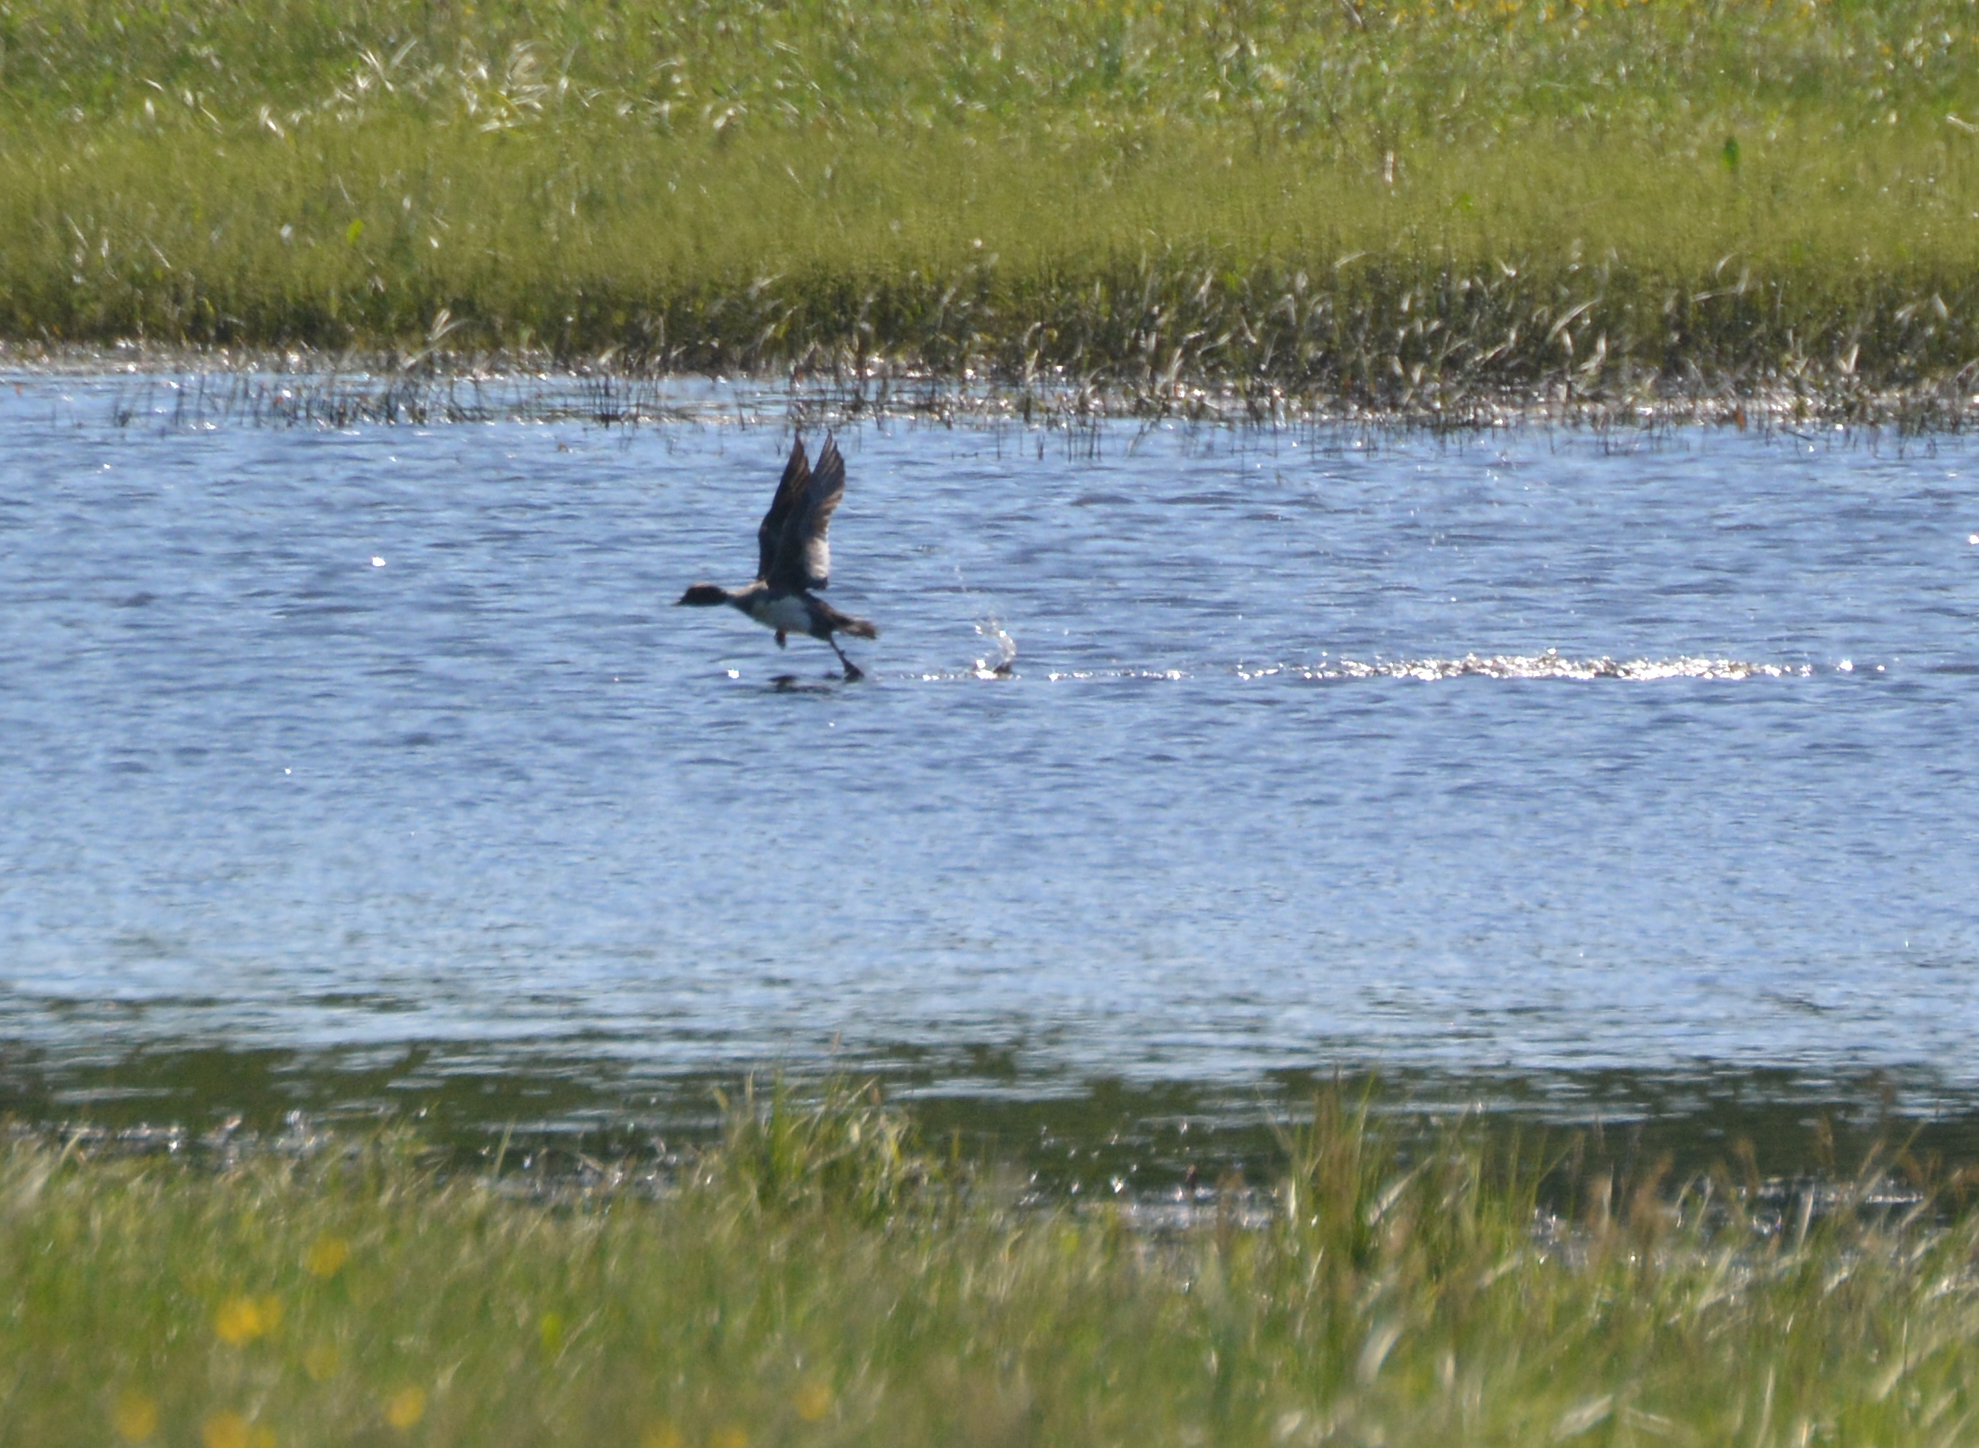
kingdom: Animalia
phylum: Chordata
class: Aves
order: Anseriformes
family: Anatidae
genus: Bucephala
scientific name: Bucephala clangula
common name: Common goldeneye
